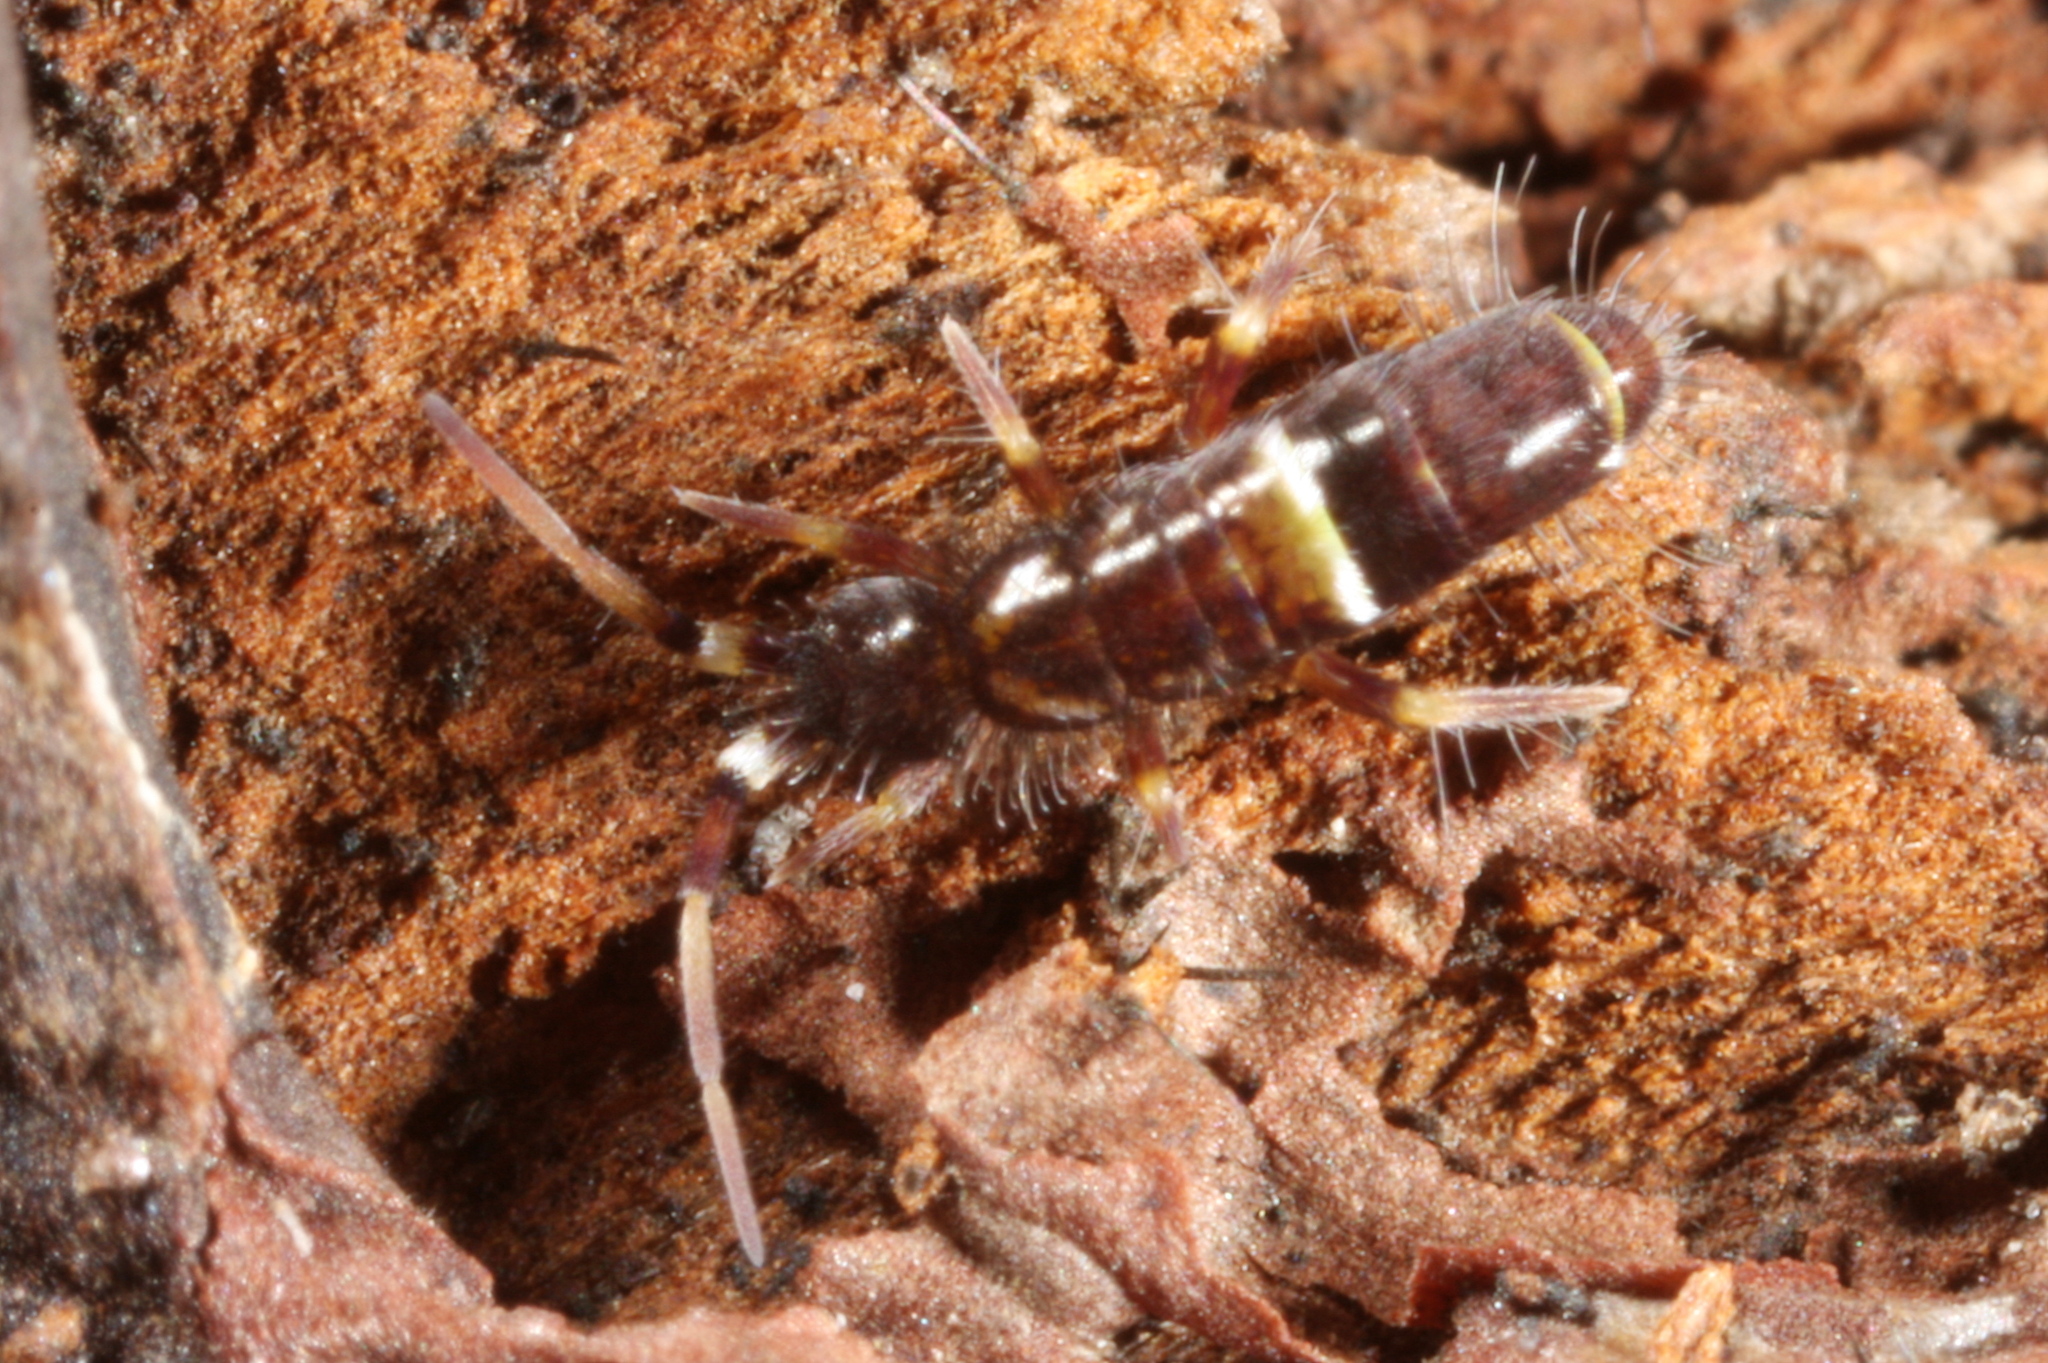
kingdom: Animalia
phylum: Arthropoda
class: Collembola
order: Entomobryomorpha
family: Orchesellidae
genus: Orchesella
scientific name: Orchesella cincta
